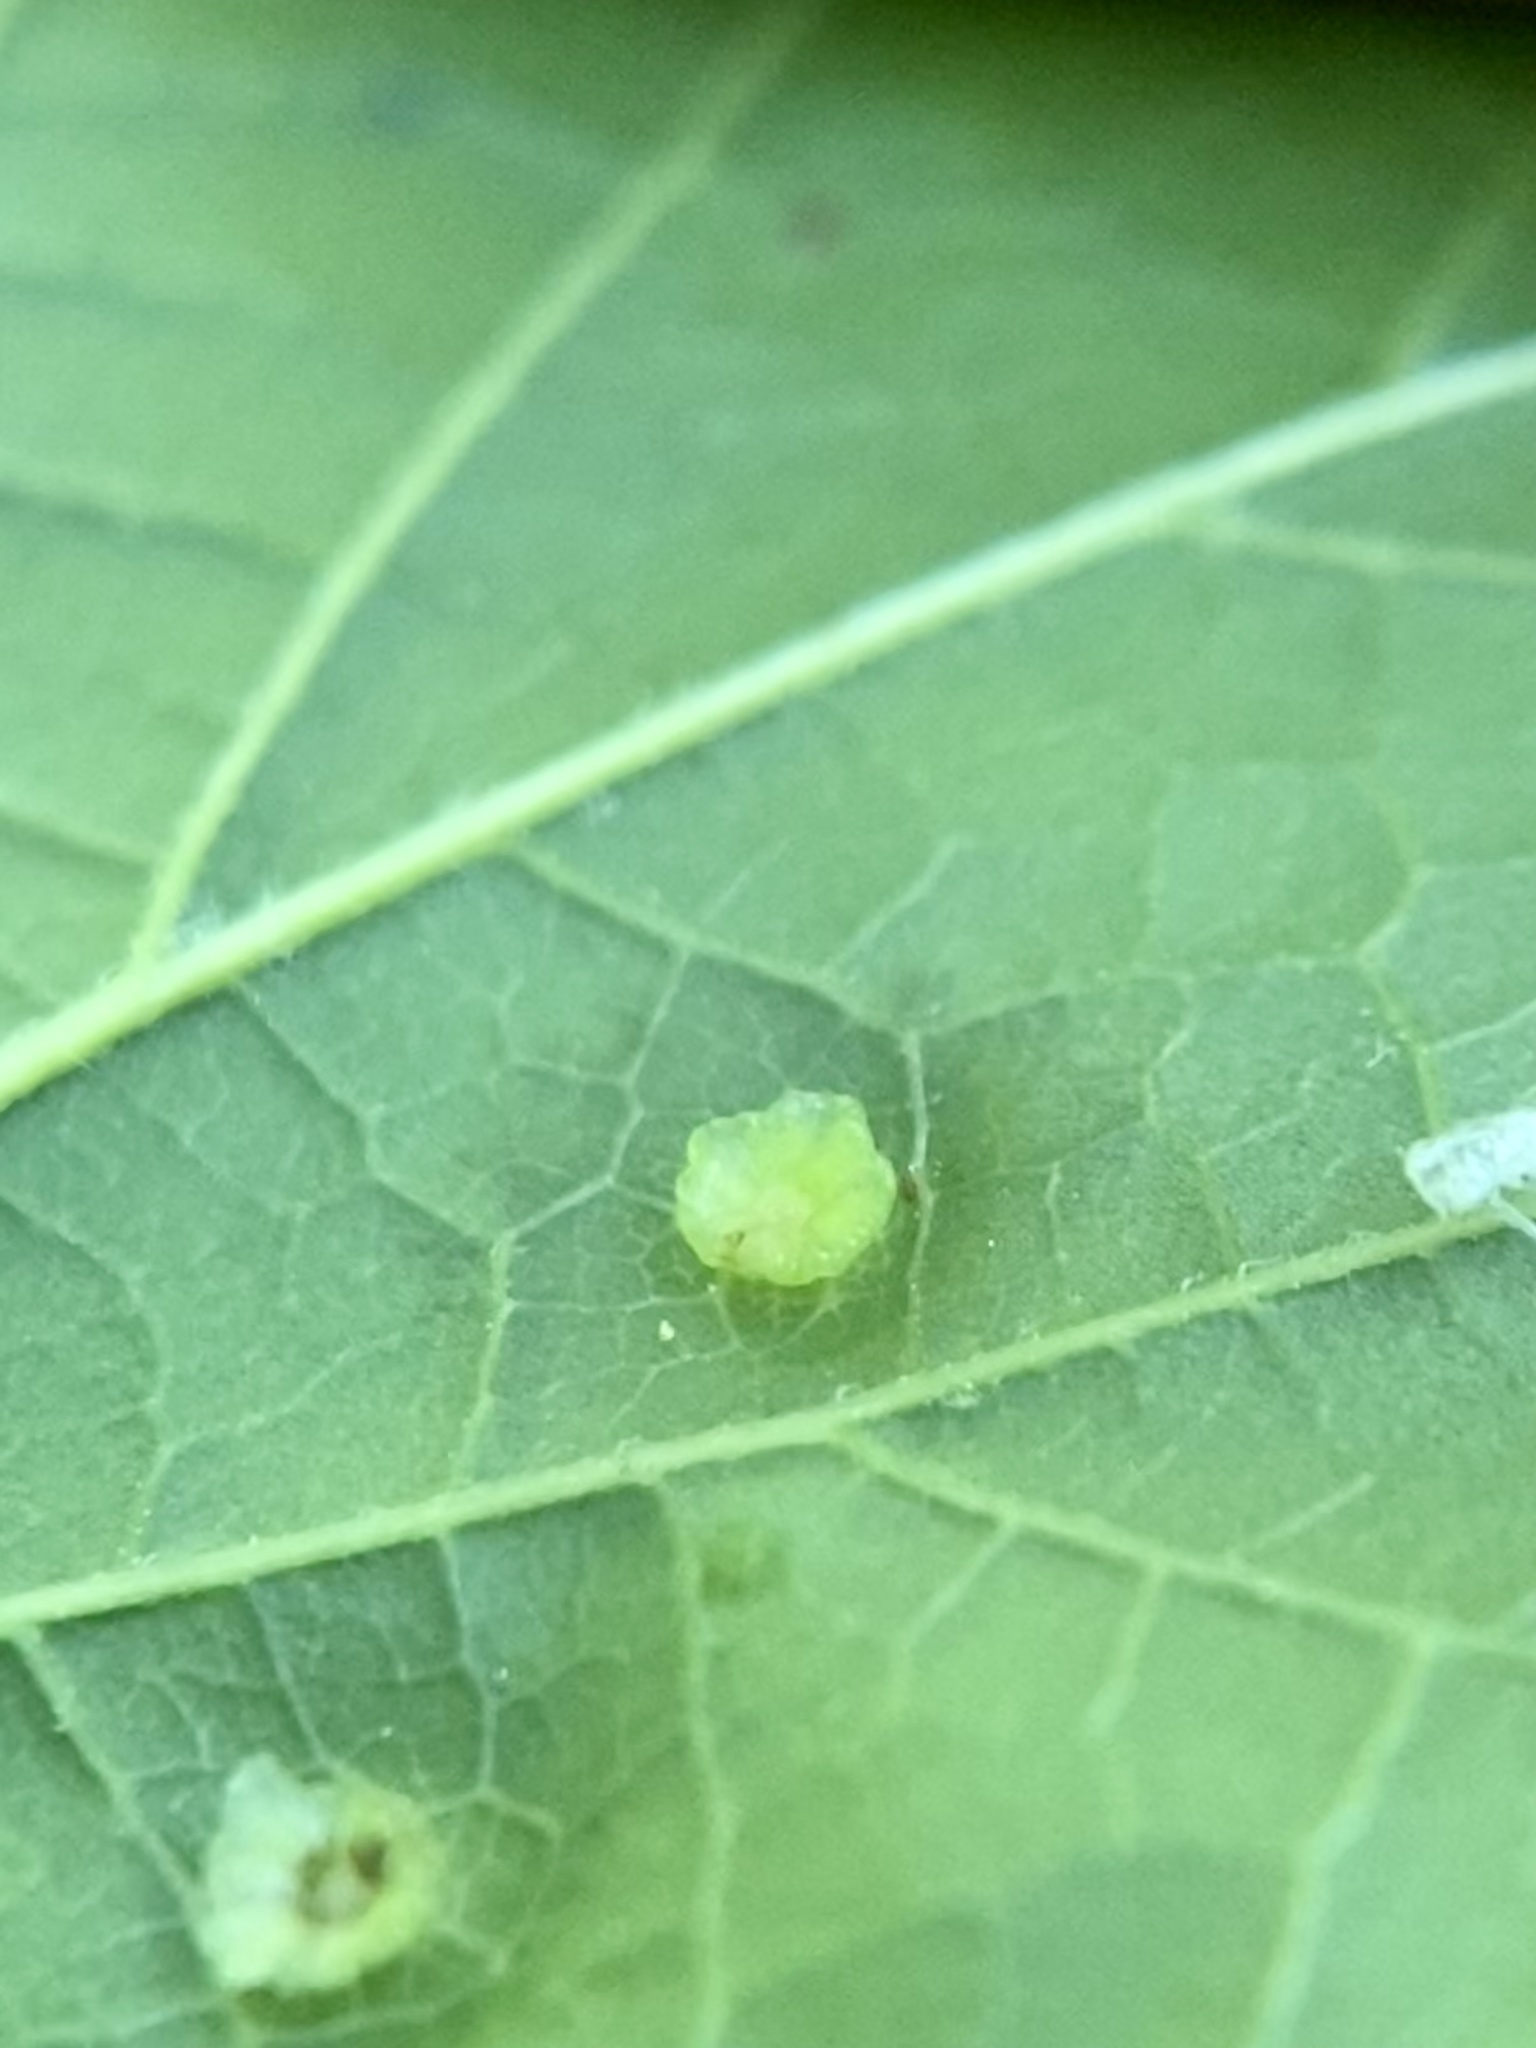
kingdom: Animalia
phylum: Arthropoda
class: Insecta
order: Hemiptera
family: Aphalaridae
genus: Pachypsylla
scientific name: Pachypsylla celtidisasterisca
